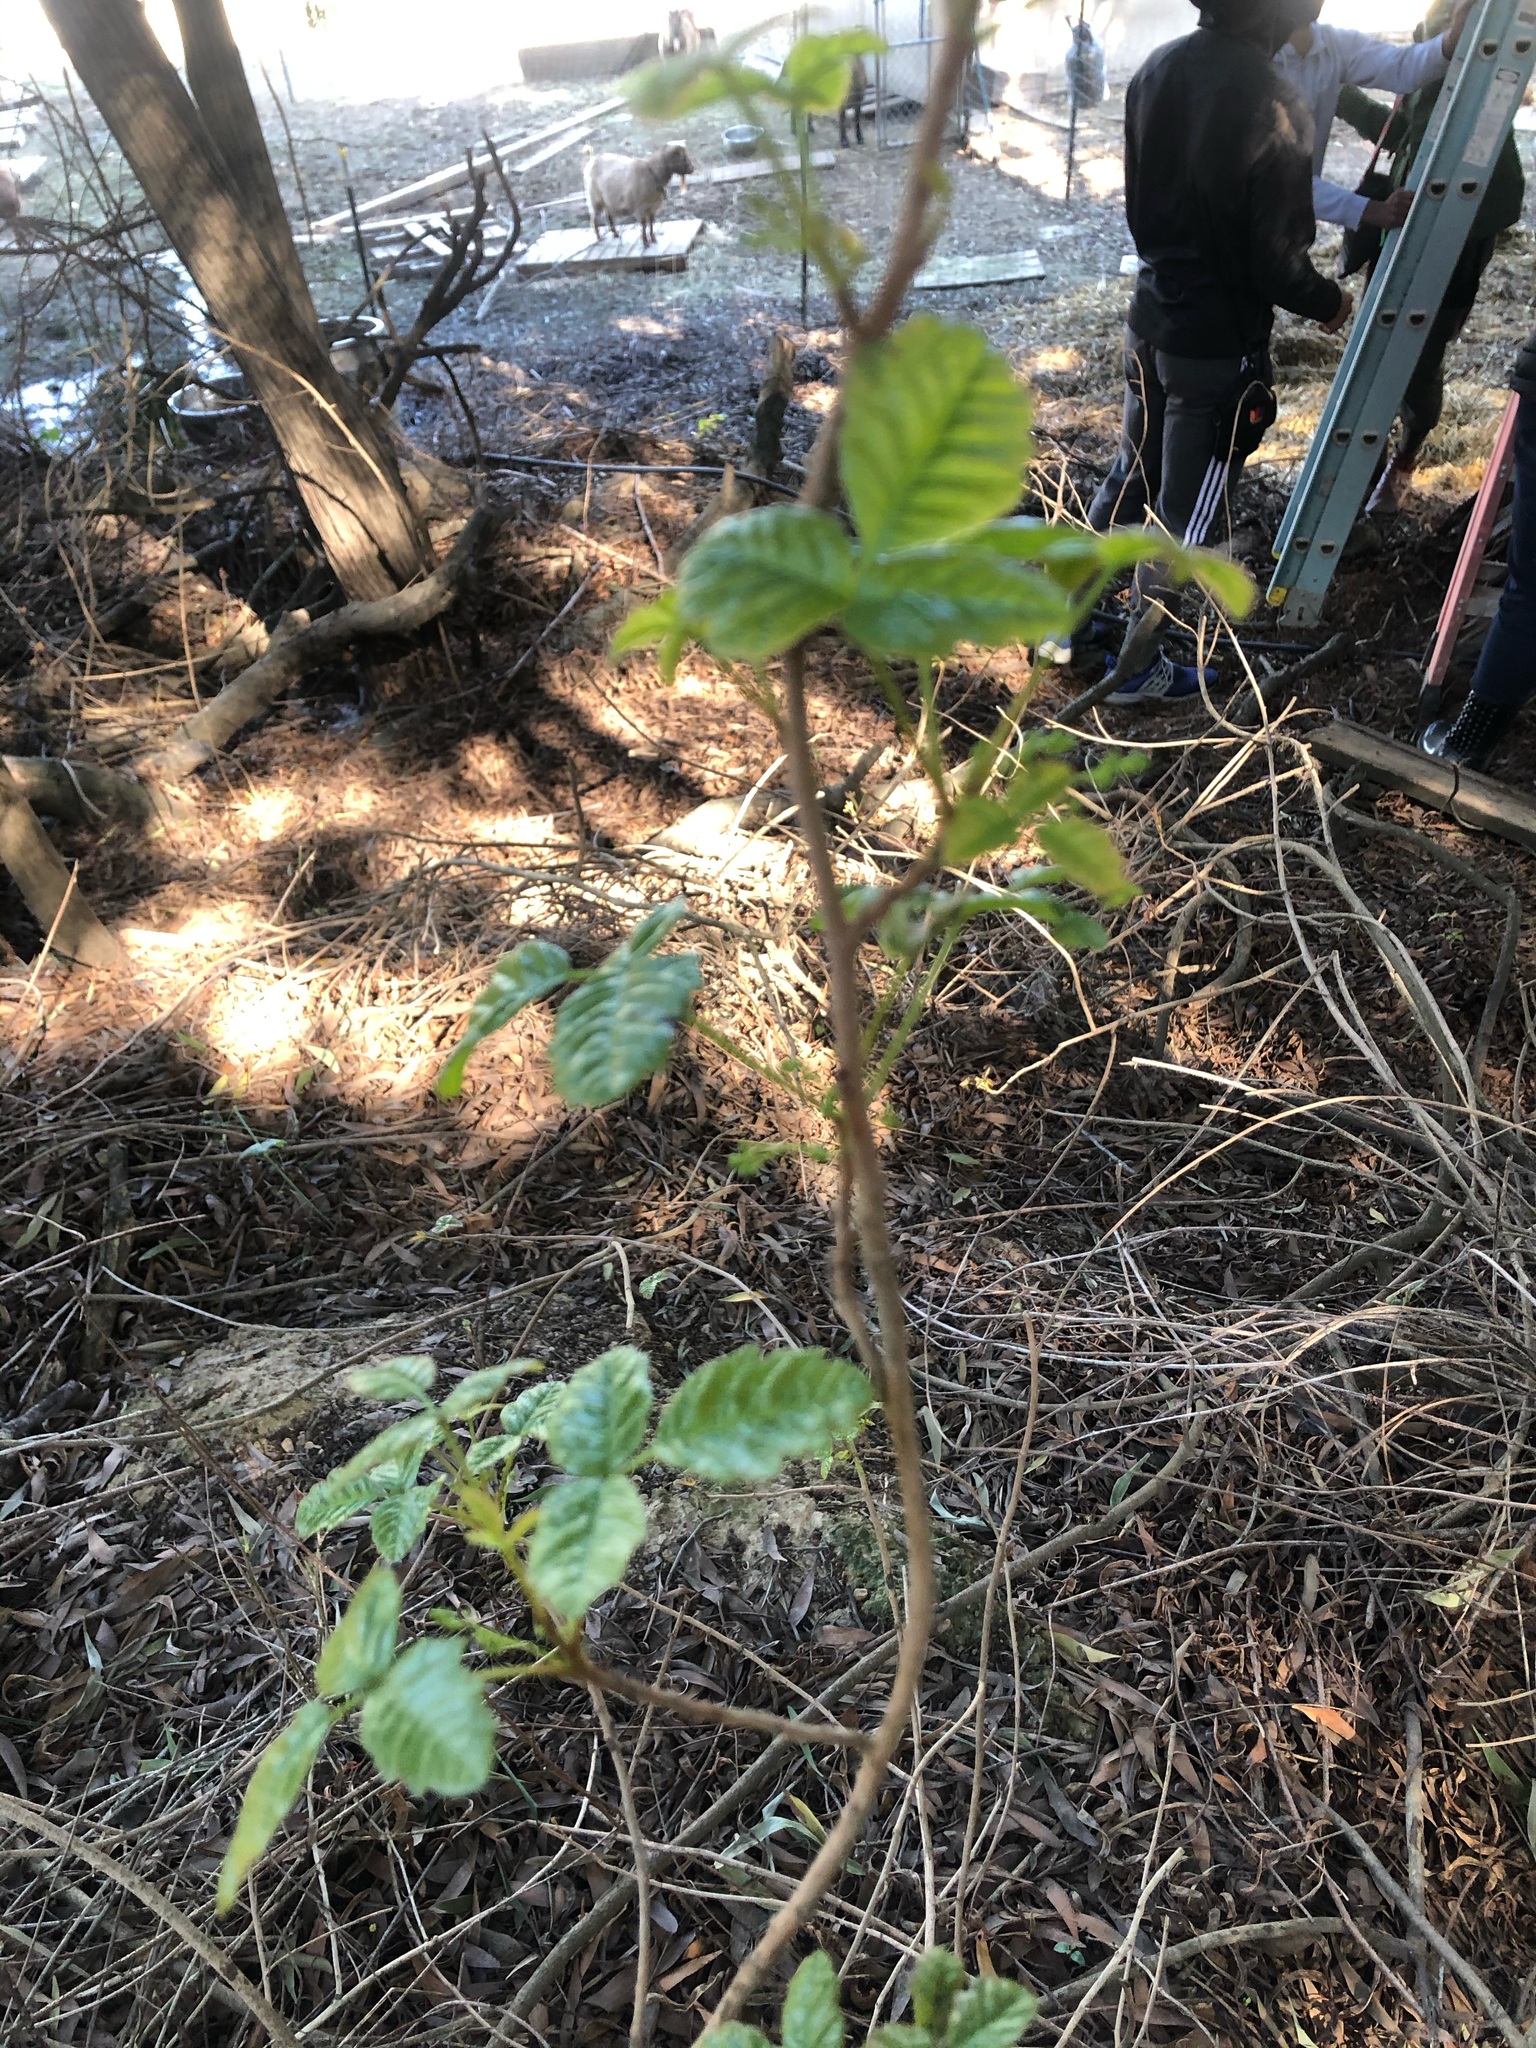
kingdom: Plantae
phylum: Tracheophyta
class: Magnoliopsida
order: Sapindales
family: Anacardiaceae
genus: Toxicodendron
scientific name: Toxicodendron diversilobum
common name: Pacific poison-oak
